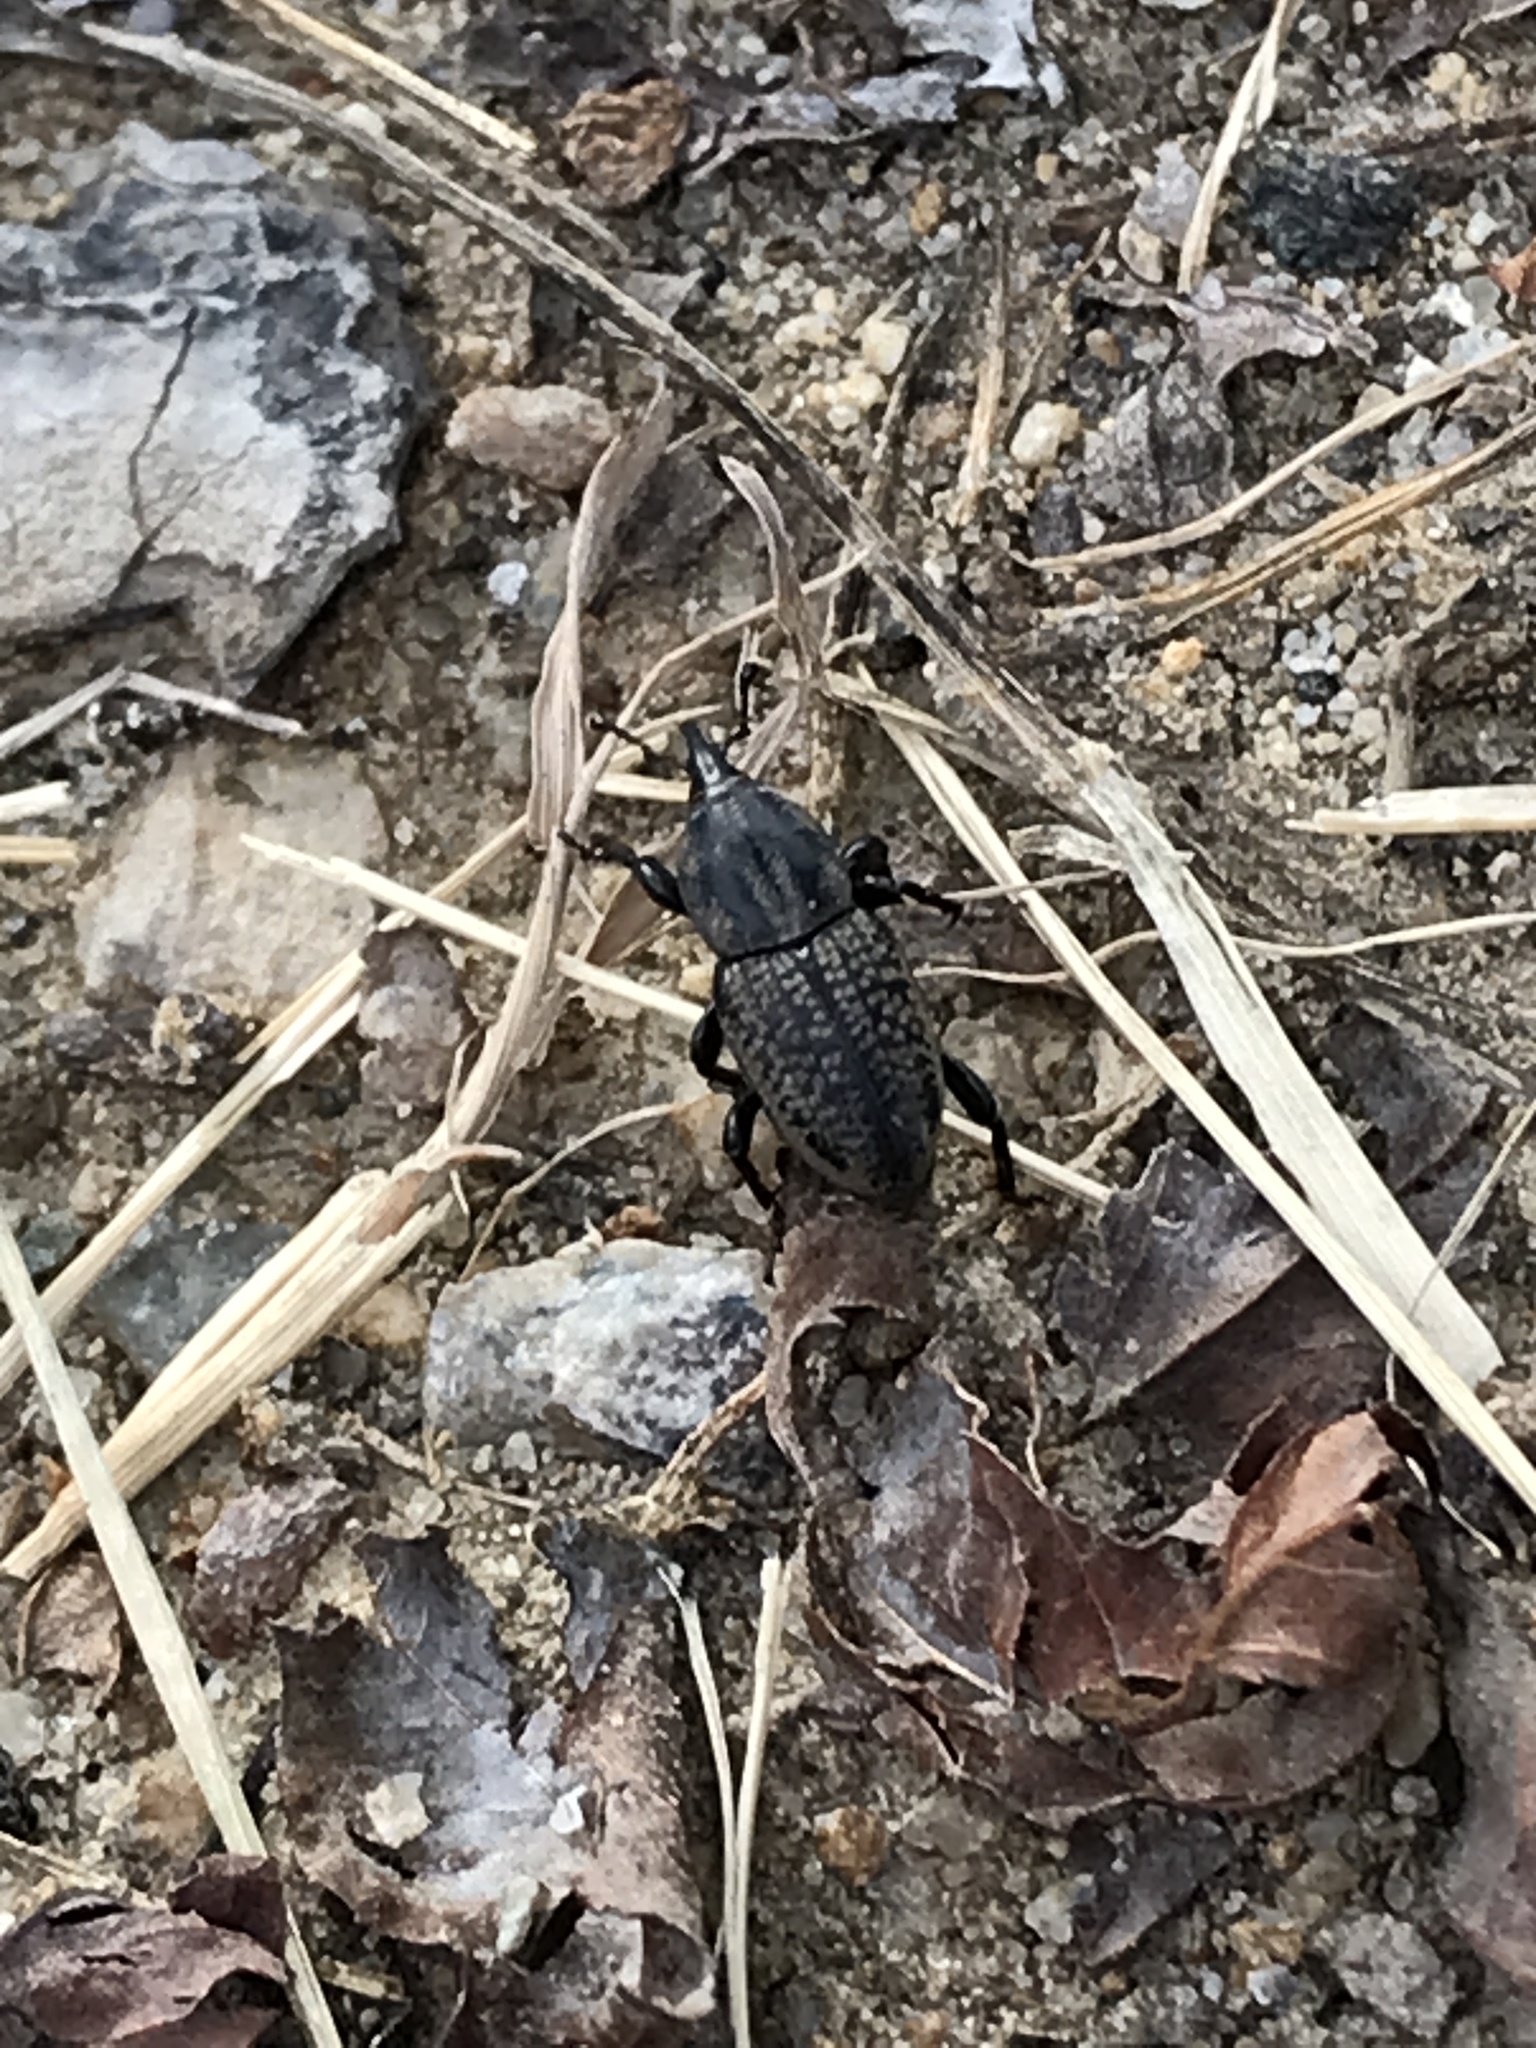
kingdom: Animalia
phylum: Arthropoda
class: Insecta
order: Coleoptera
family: Dryophthoridae
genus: Sphenophorus
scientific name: Sphenophorus cicatristriatus
